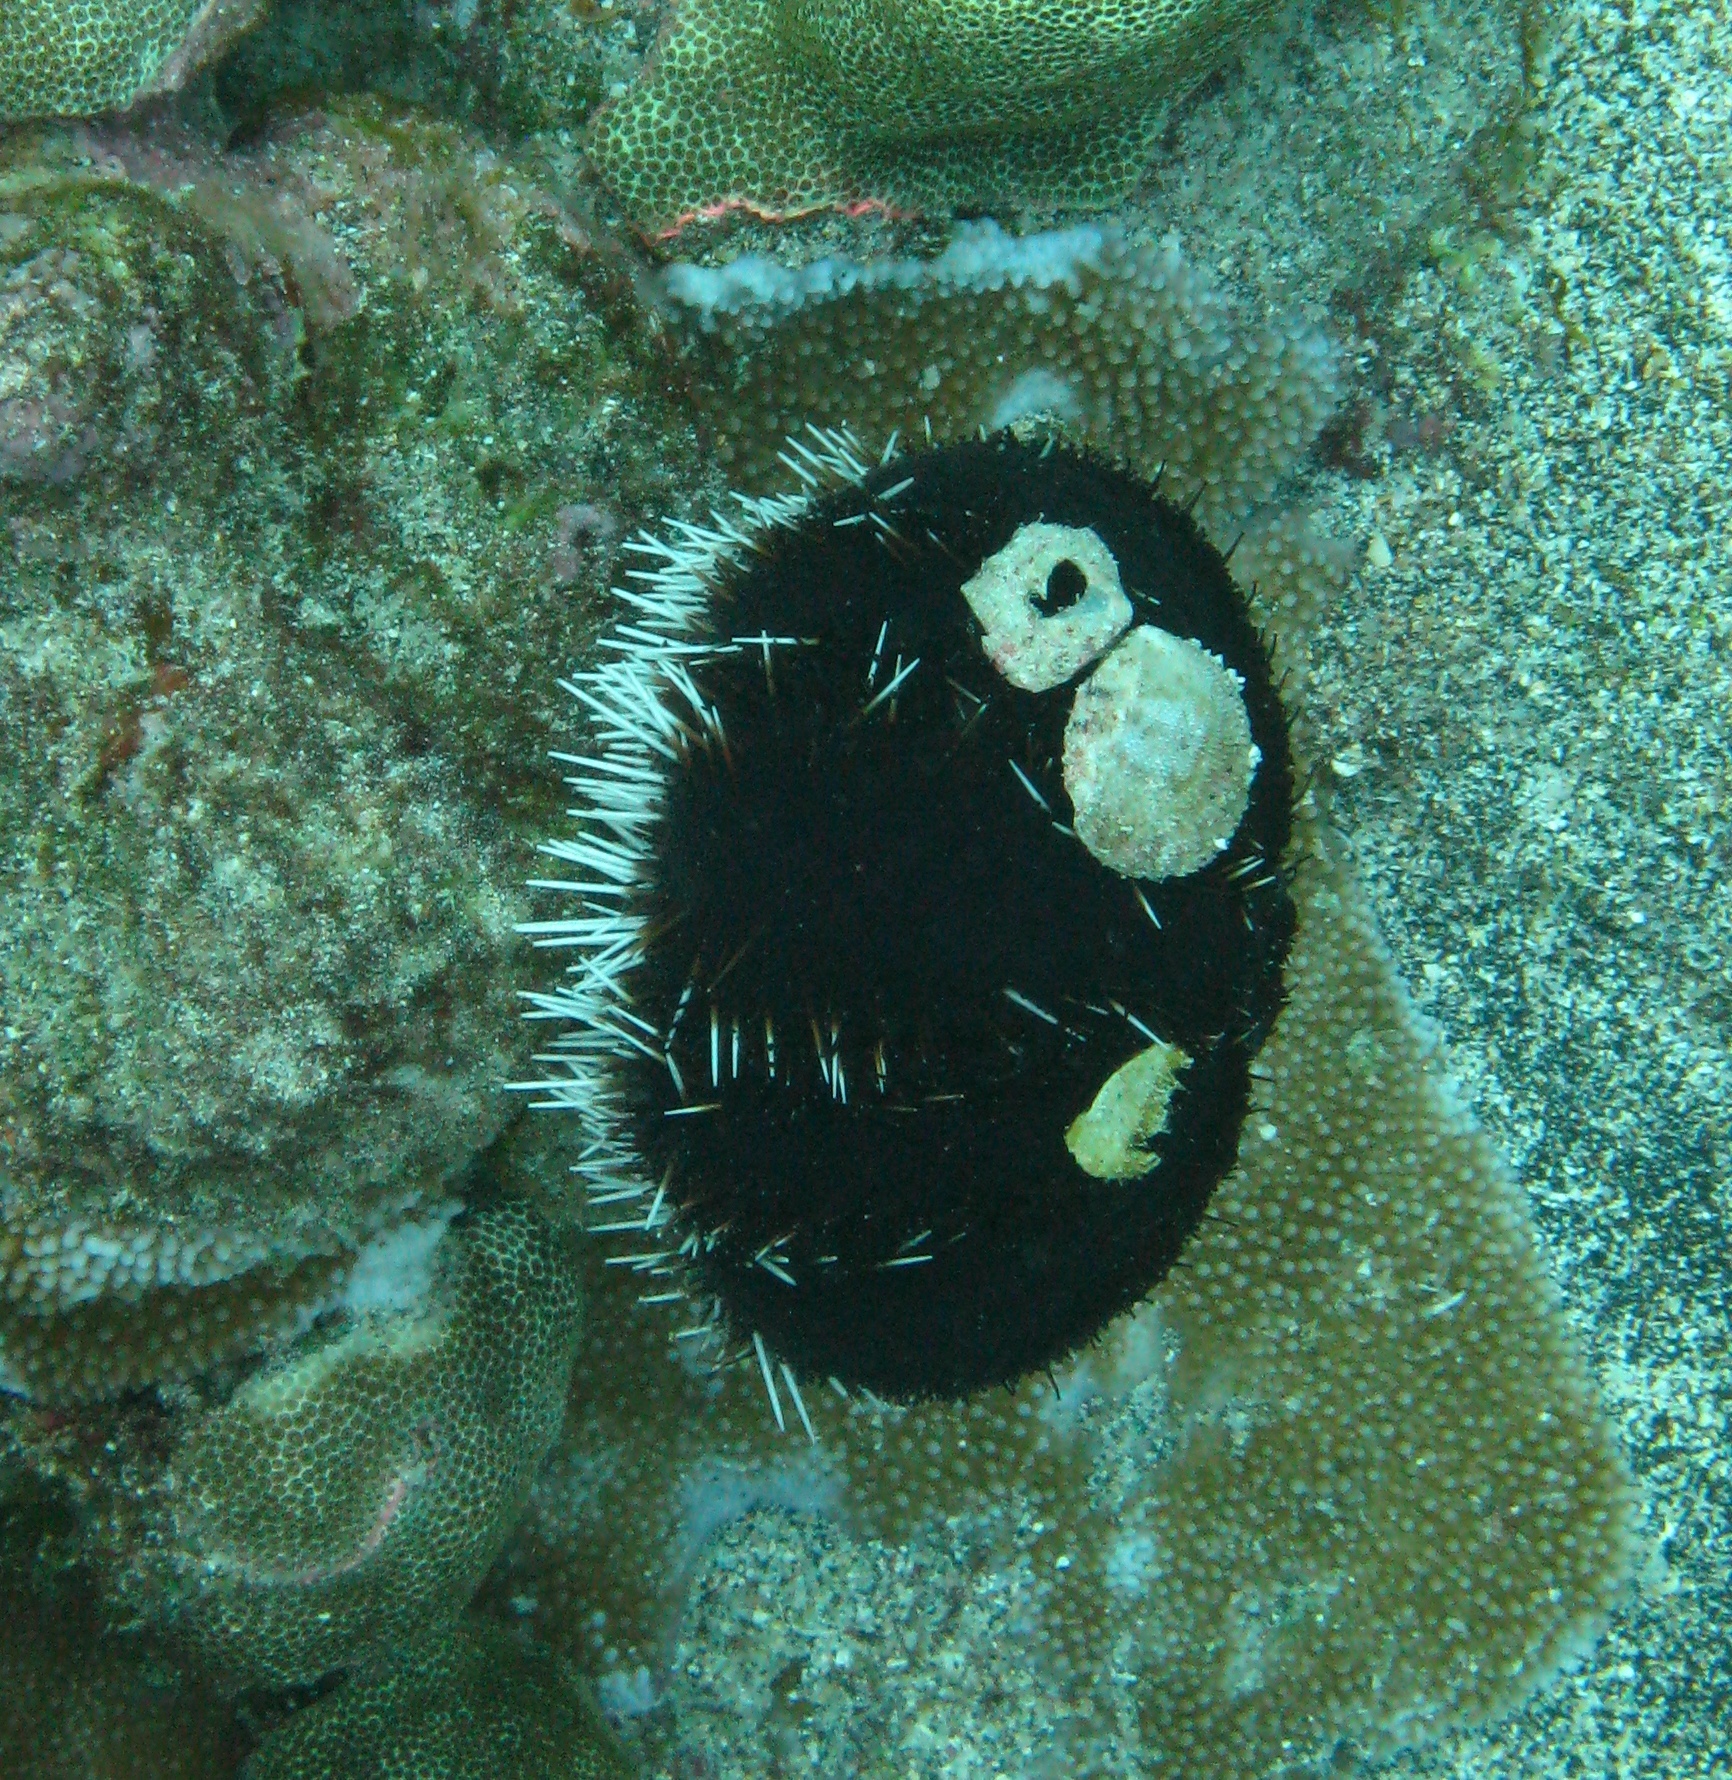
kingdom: Animalia
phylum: Echinodermata
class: Echinoidea
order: Camarodonta
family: Toxopneustidae
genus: Tripneustes
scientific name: Tripneustes gratilla
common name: Bischofsmützenseeigel
